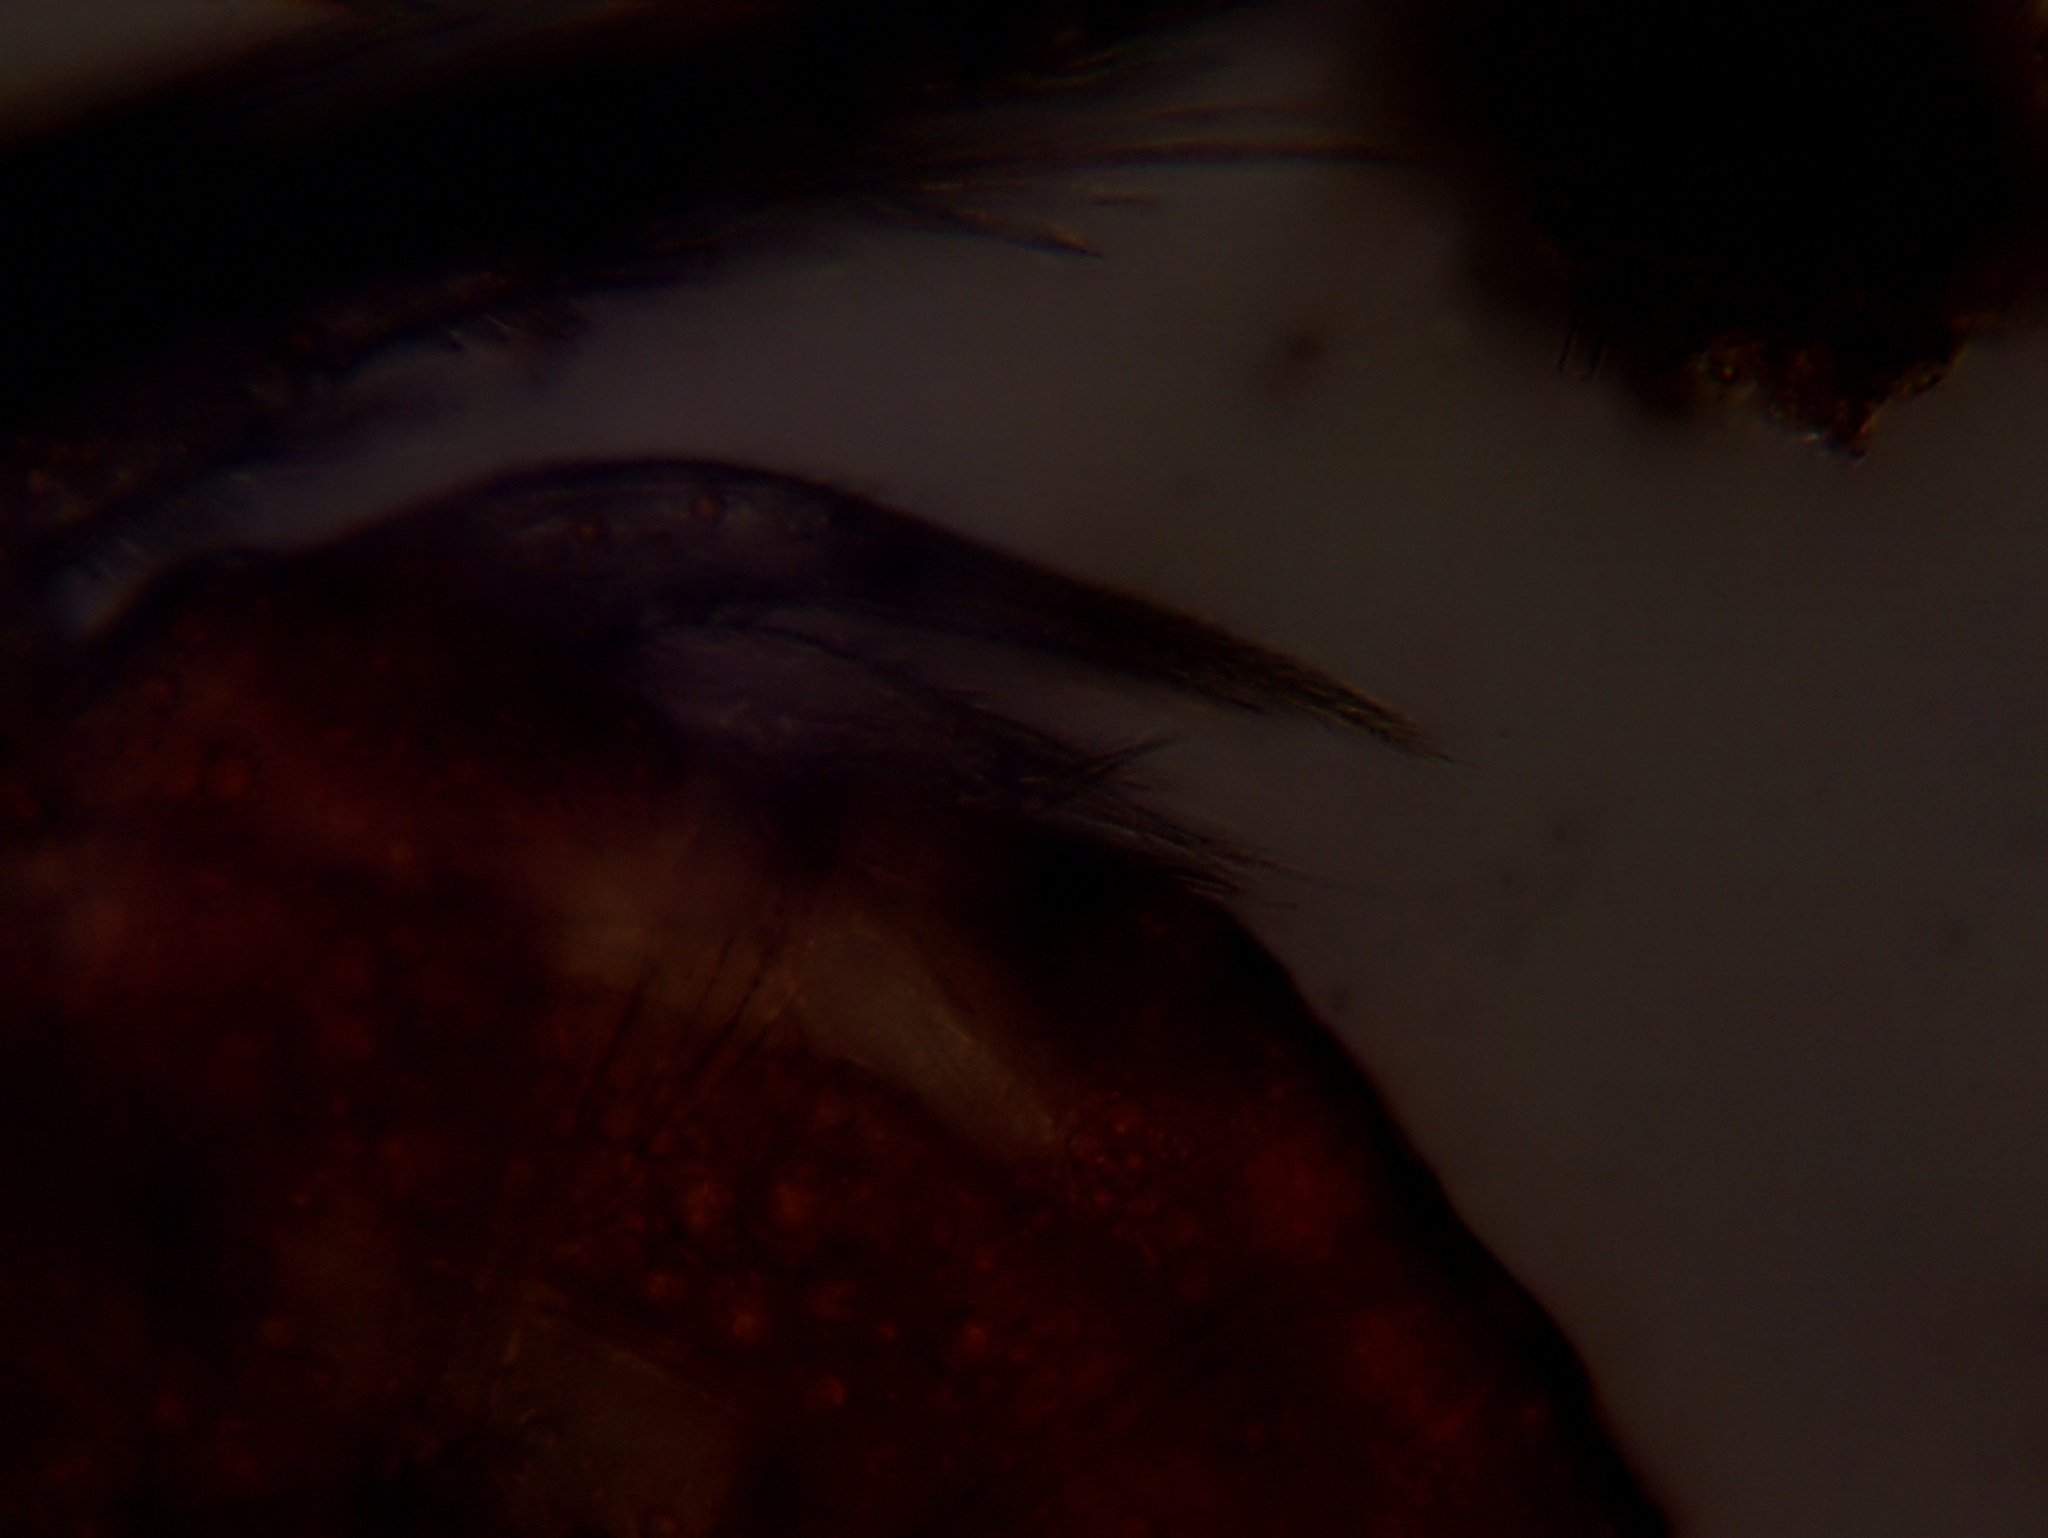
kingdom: Animalia
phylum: Arthropoda
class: Copepoda
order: Harpacticoida
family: Canthocamptidae
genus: Attheyella
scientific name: Attheyella illinoisensis
